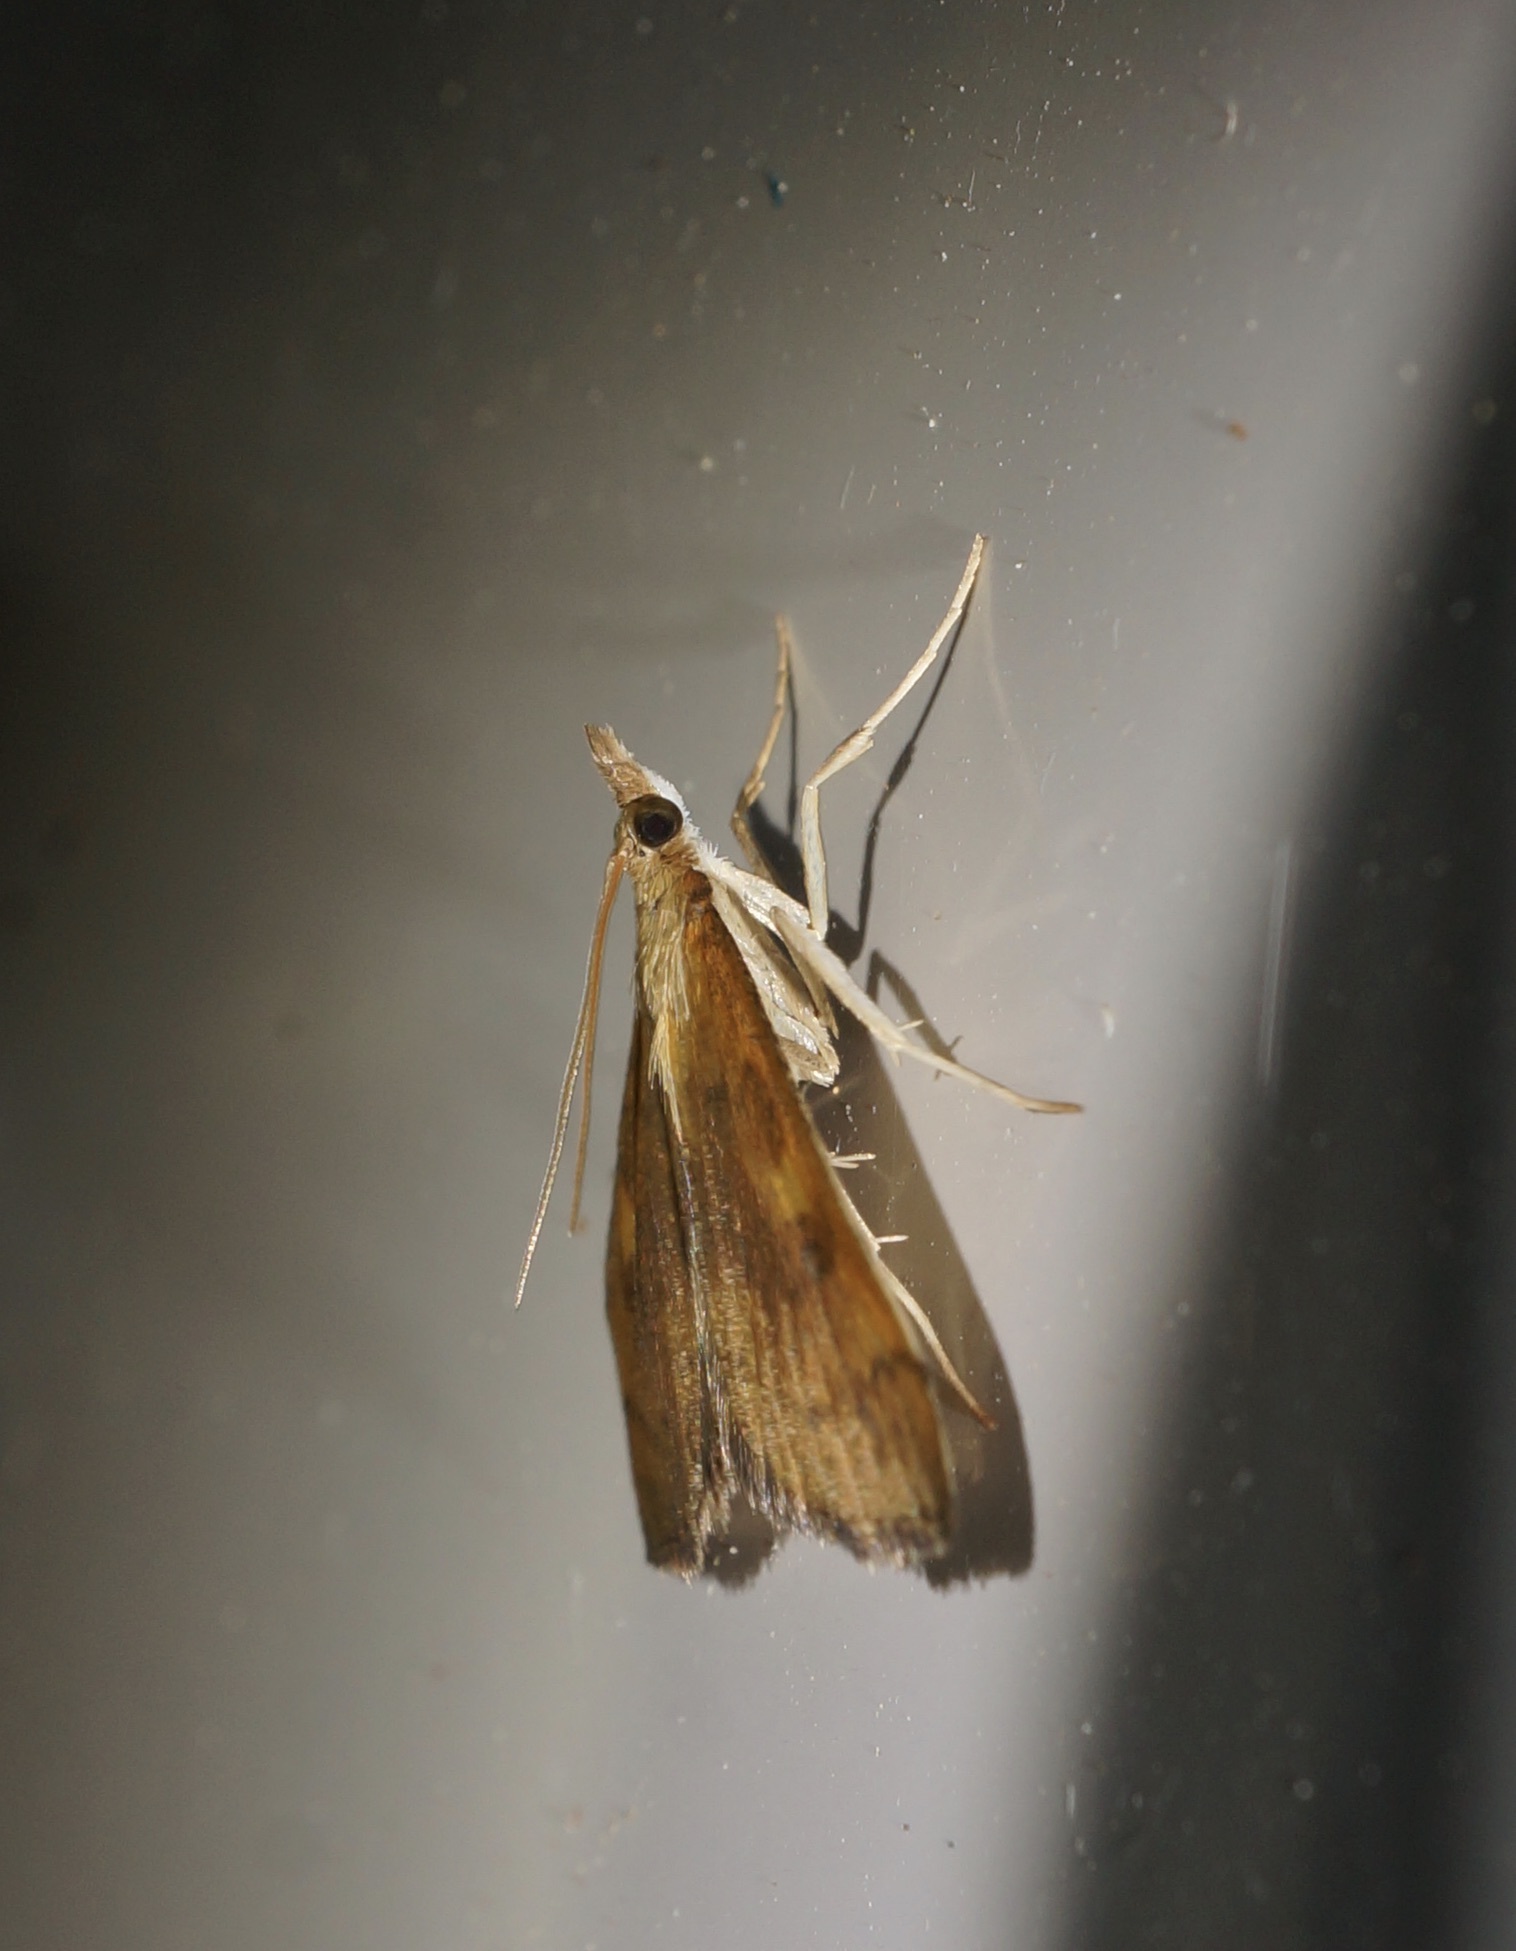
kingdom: Animalia
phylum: Arthropoda
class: Insecta
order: Lepidoptera
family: Crambidae
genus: Udea
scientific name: Udea Mnesictena flavidalis
